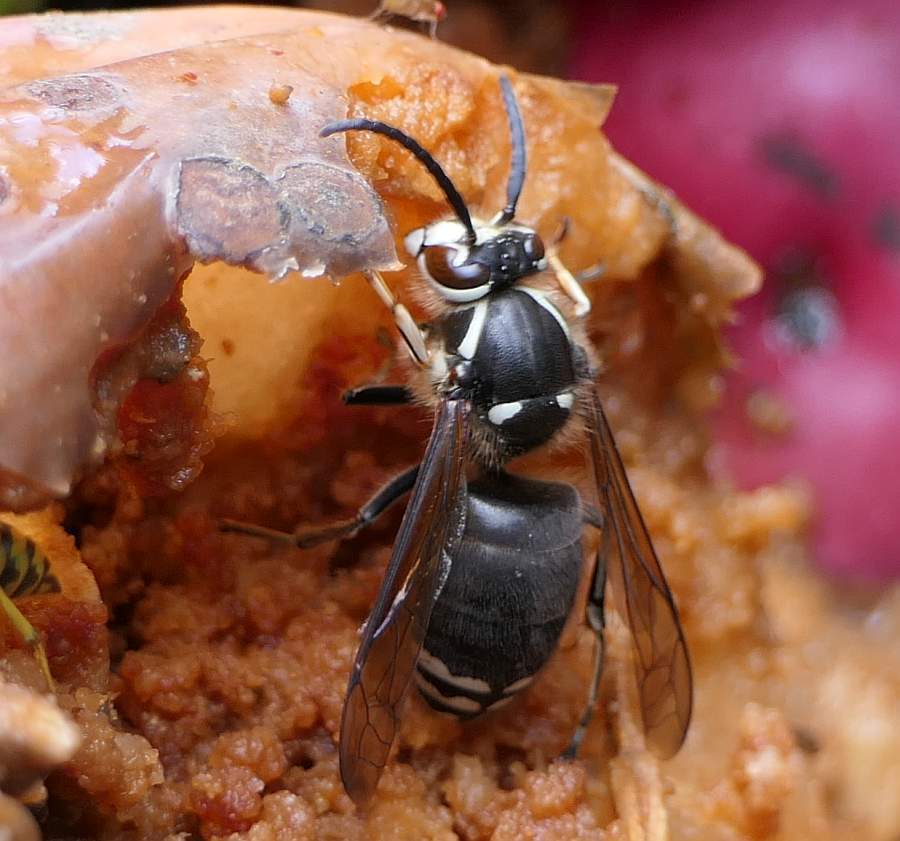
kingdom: Animalia
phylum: Arthropoda
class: Insecta
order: Hymenoptera
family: Vespidae
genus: Dolichovespula
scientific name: Dolichovespula maculata
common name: Bald-faced hornet
